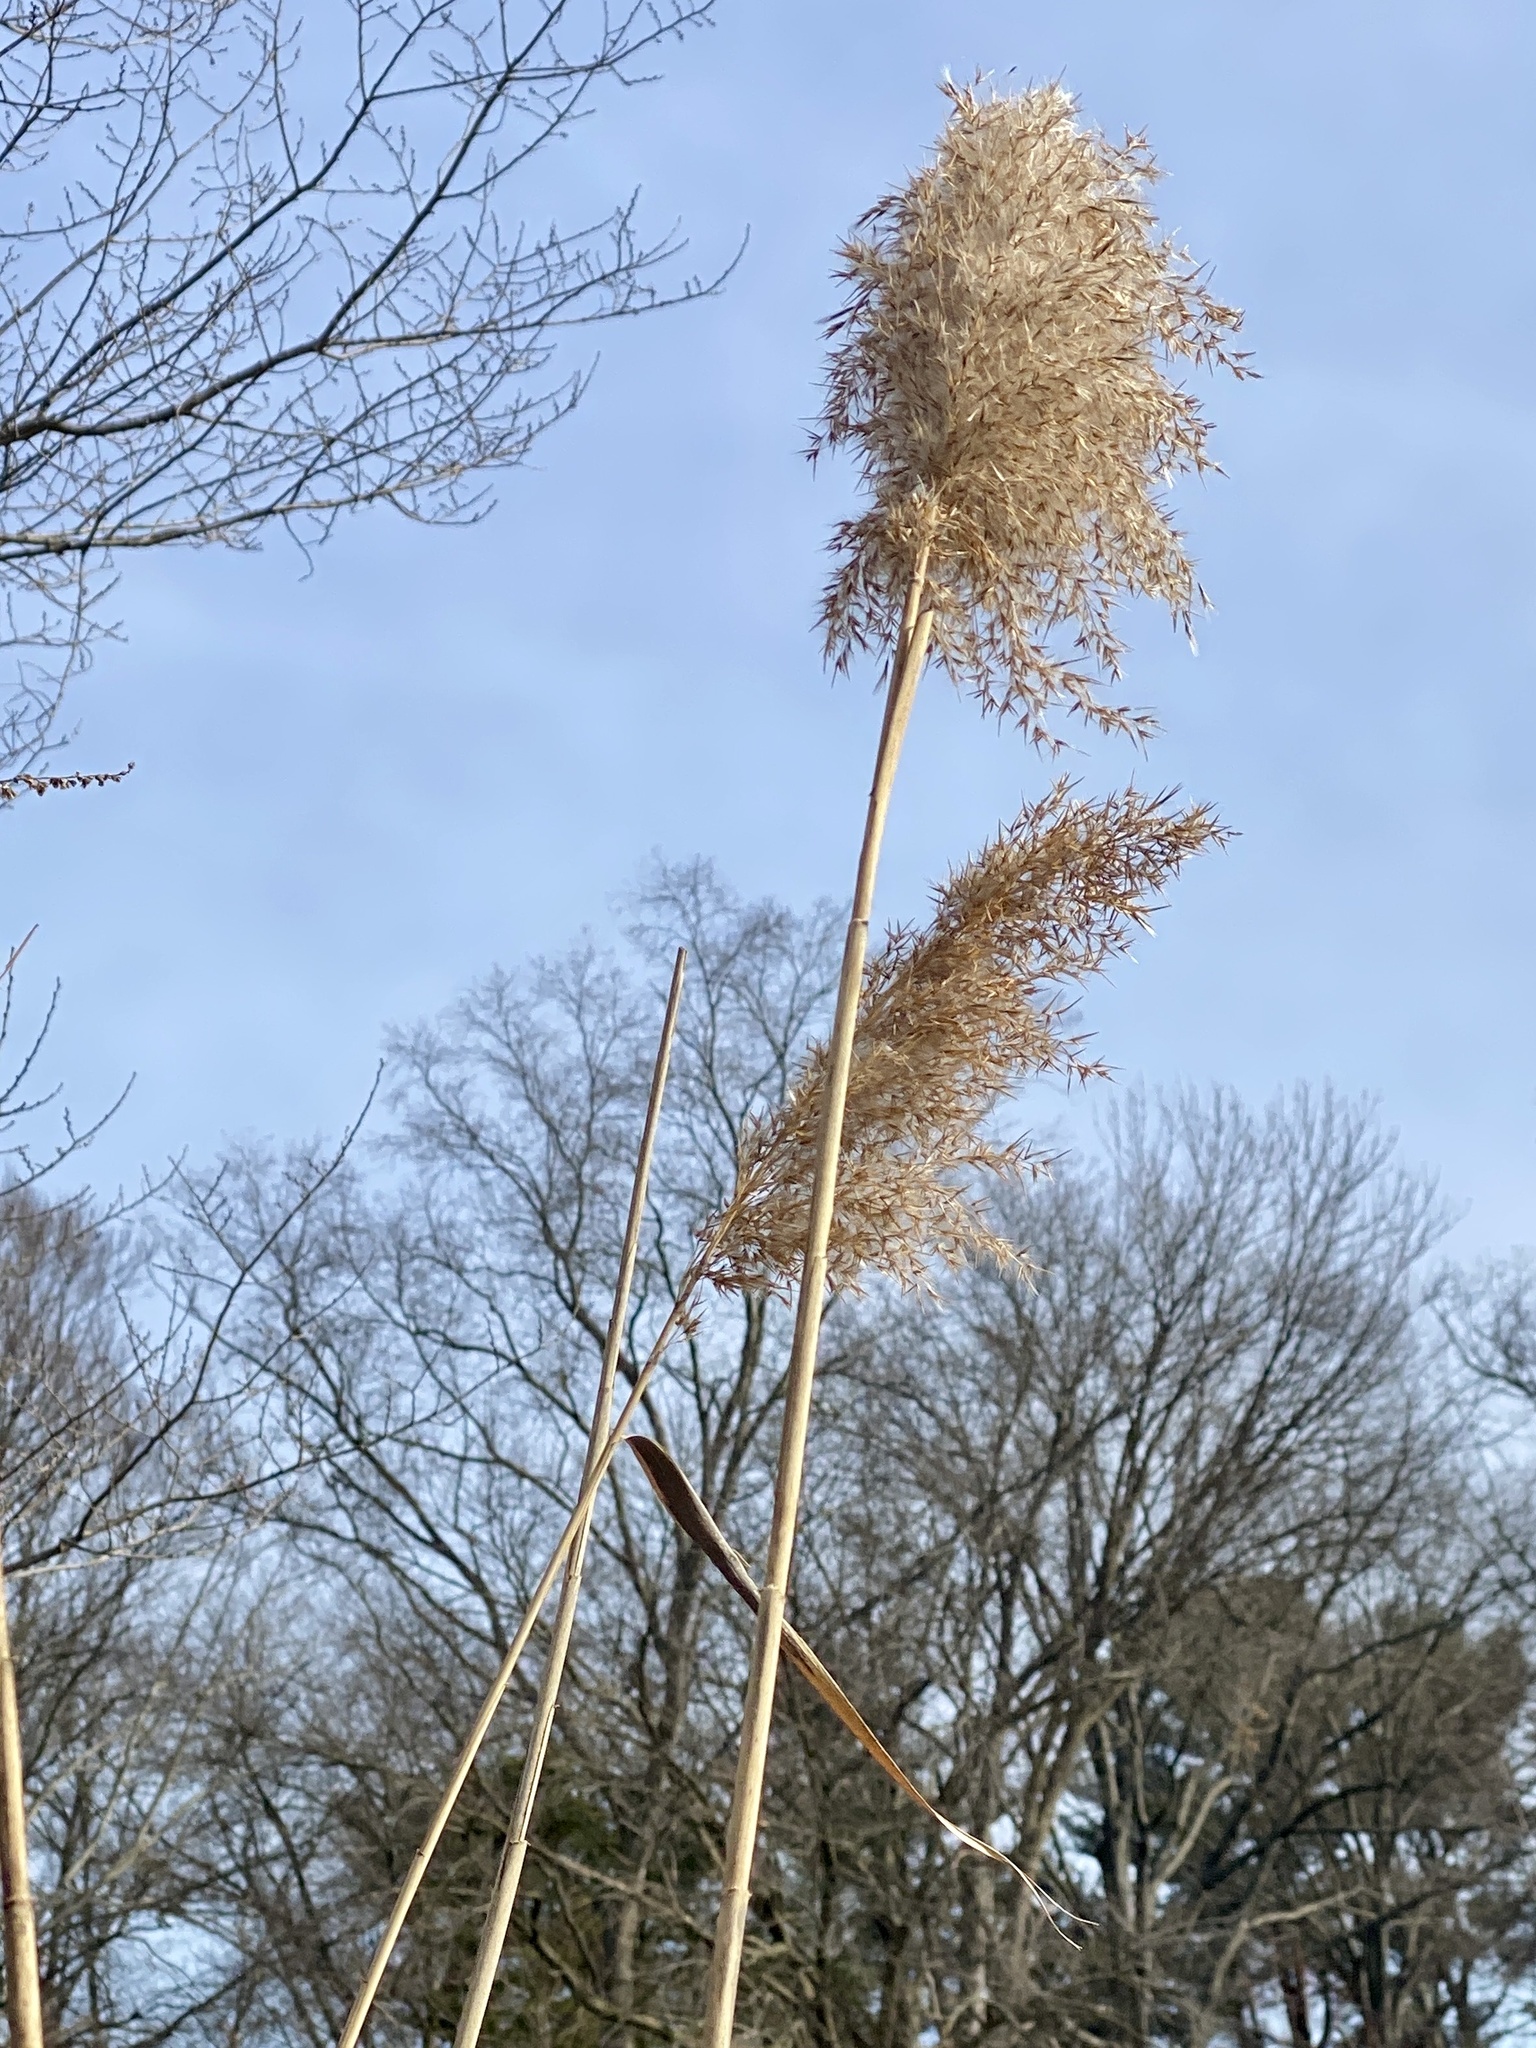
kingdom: Plantae
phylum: Tracheophyta
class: Liliopsida
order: Poales
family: Poaceae
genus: Phragmites
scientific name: Phragmites australis
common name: Common reed
